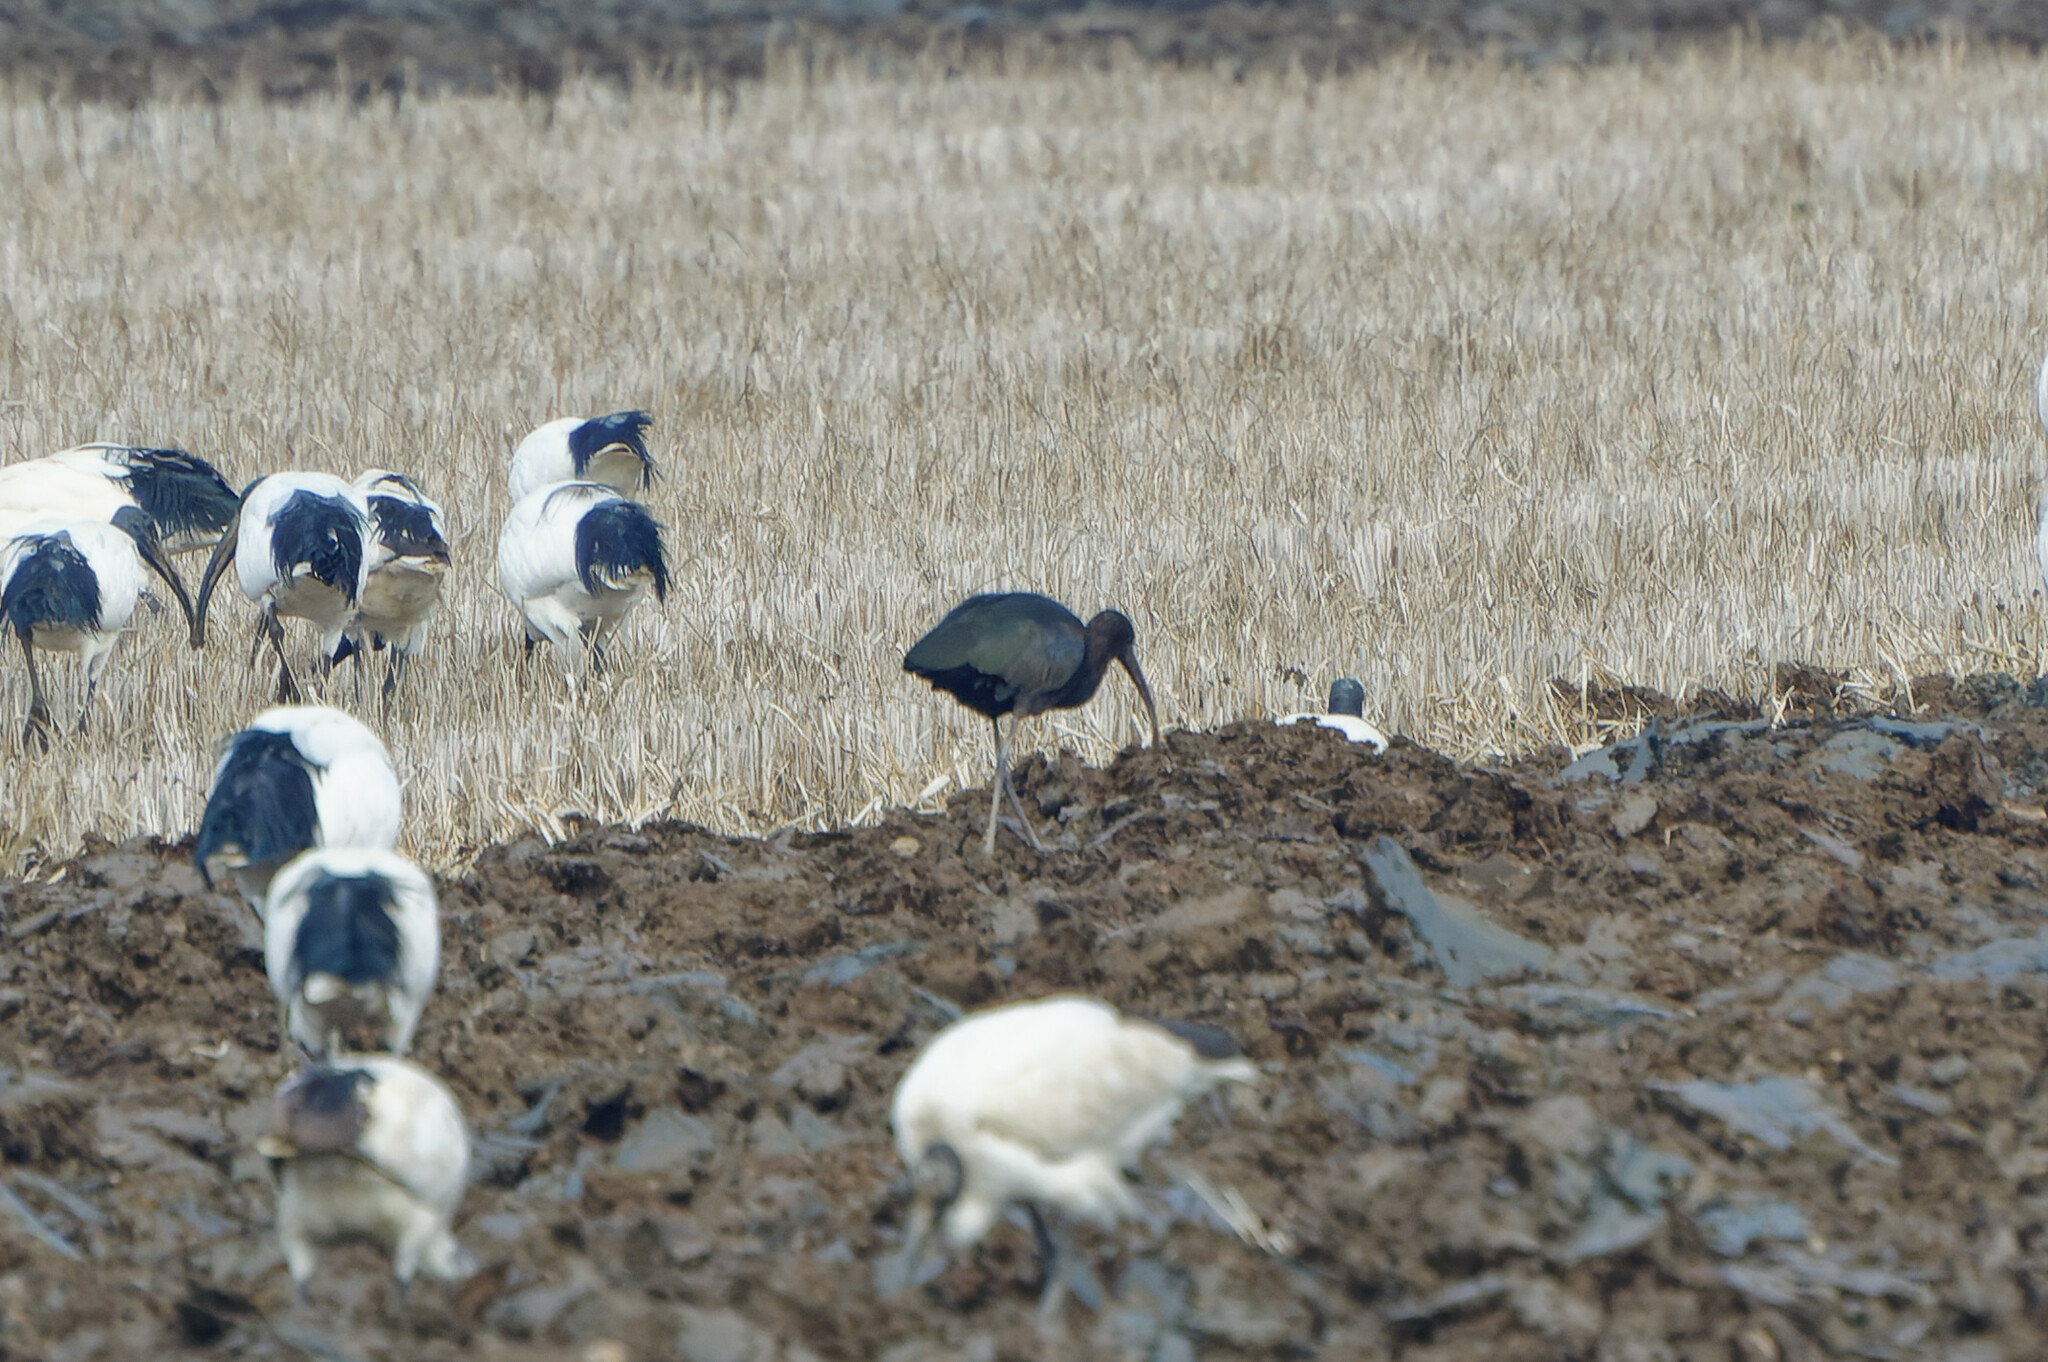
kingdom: Animalia
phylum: Chordata
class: Aves
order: Pelecaniformes
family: Threskiornithidae
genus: Plegadis
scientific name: Plegadis falcinellus
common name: Glossy ibis
